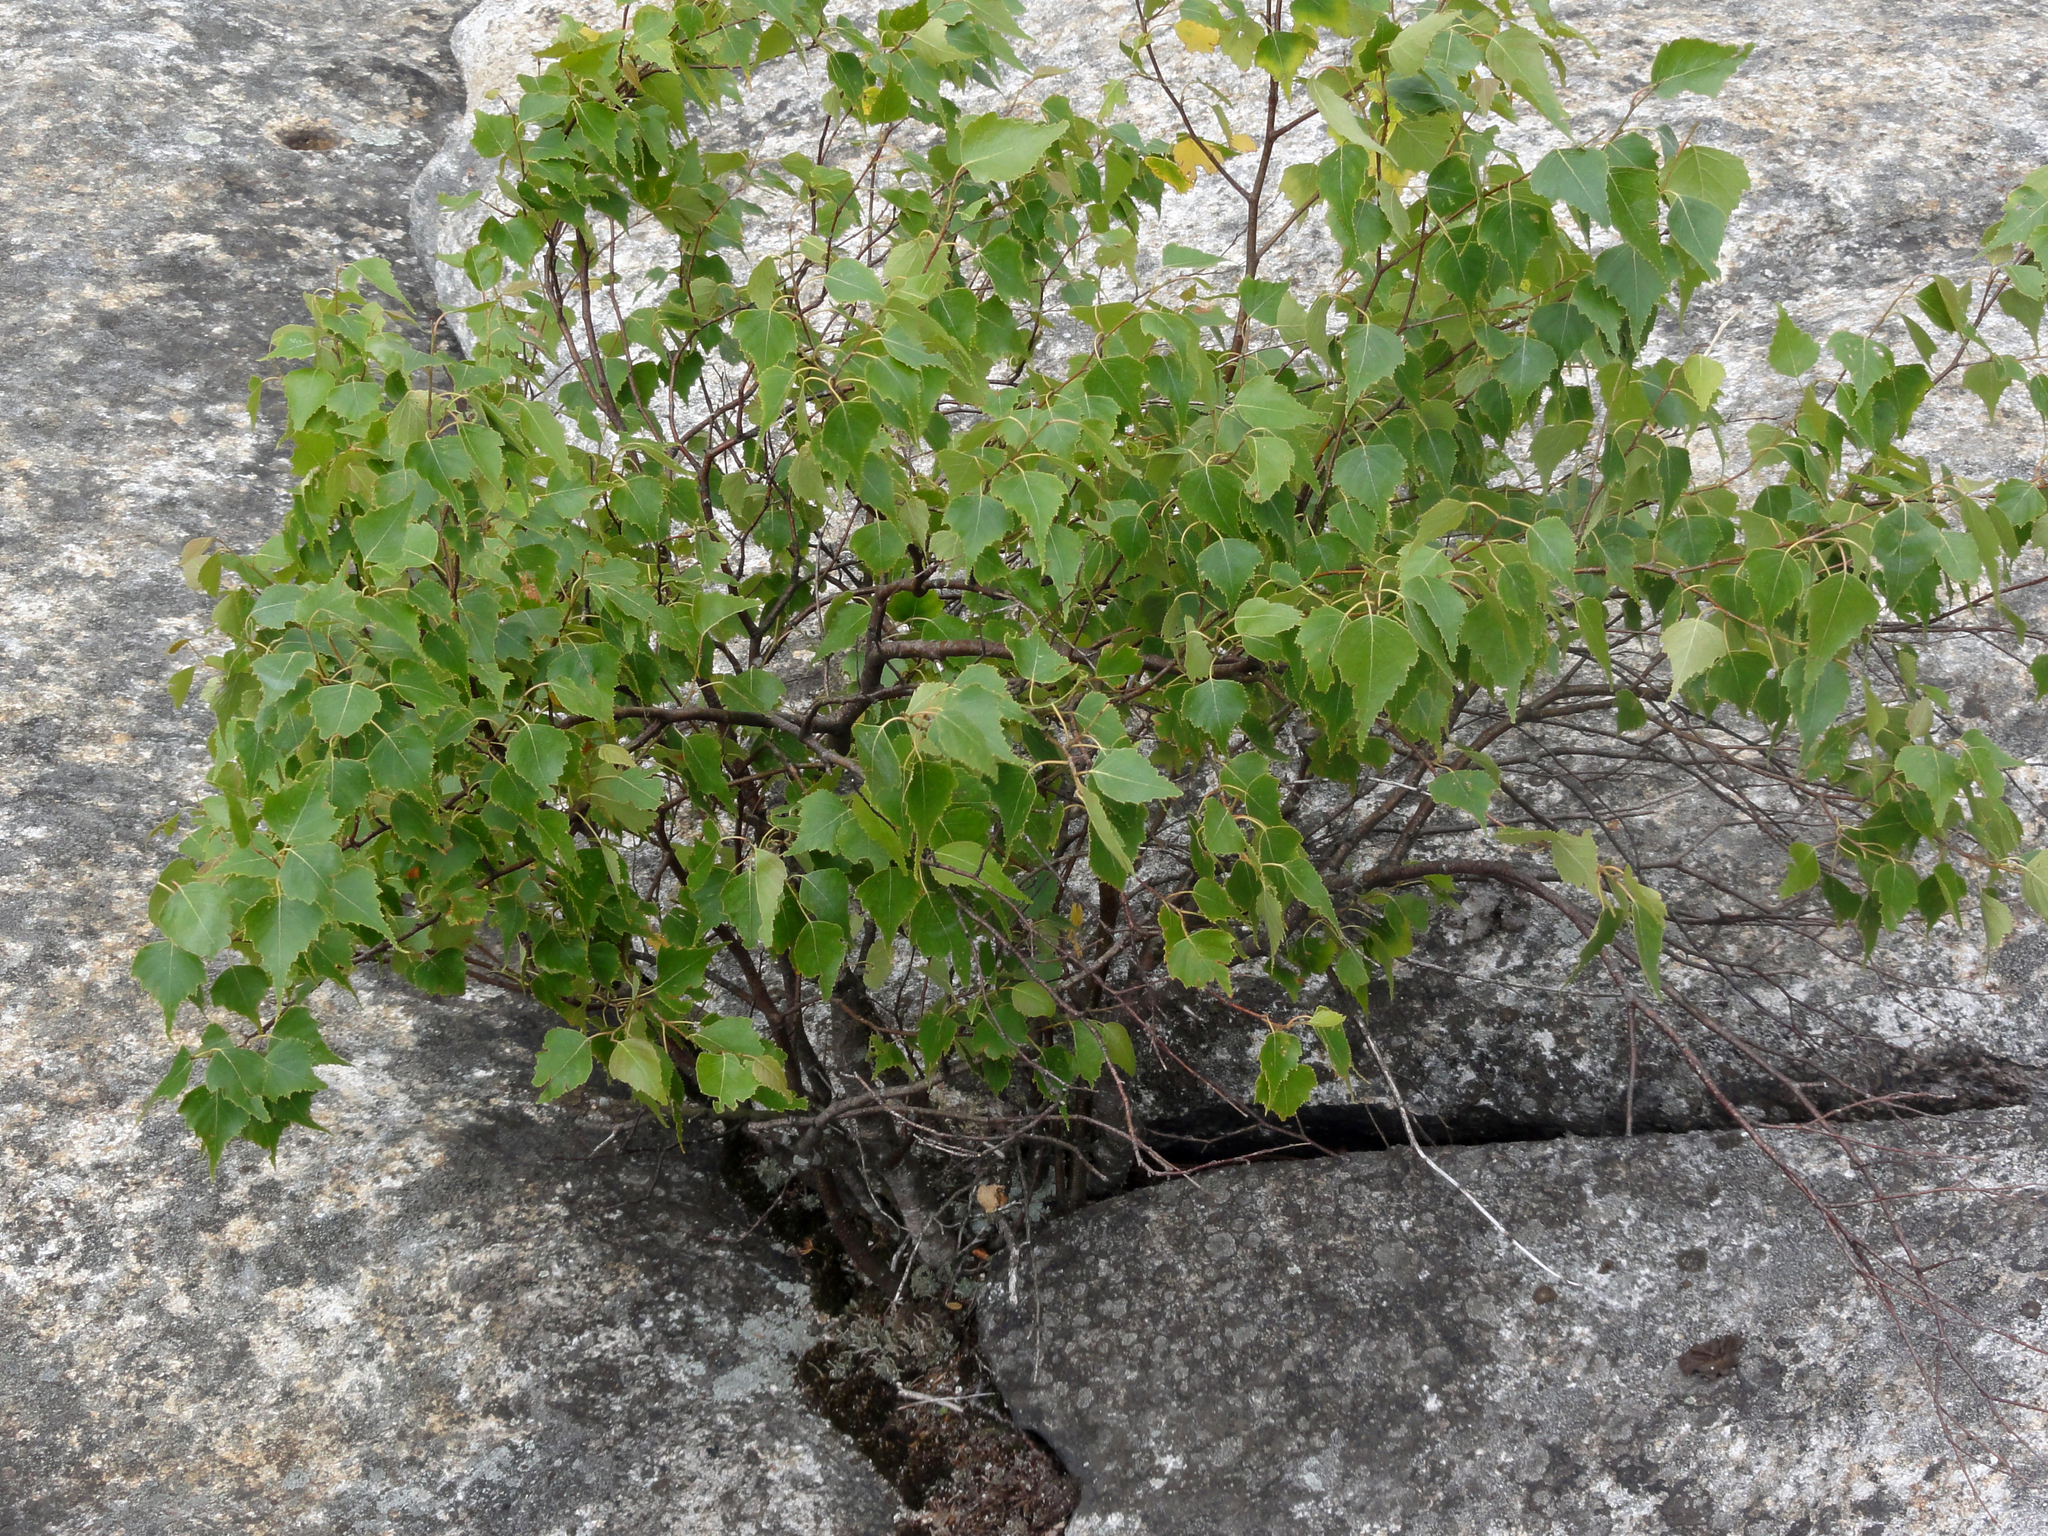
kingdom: Plantae
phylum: Tracheophyta
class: Magnoliopsida
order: Fagales
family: Betulaceae
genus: Betula
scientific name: Betula populifolia
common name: Fire birch
